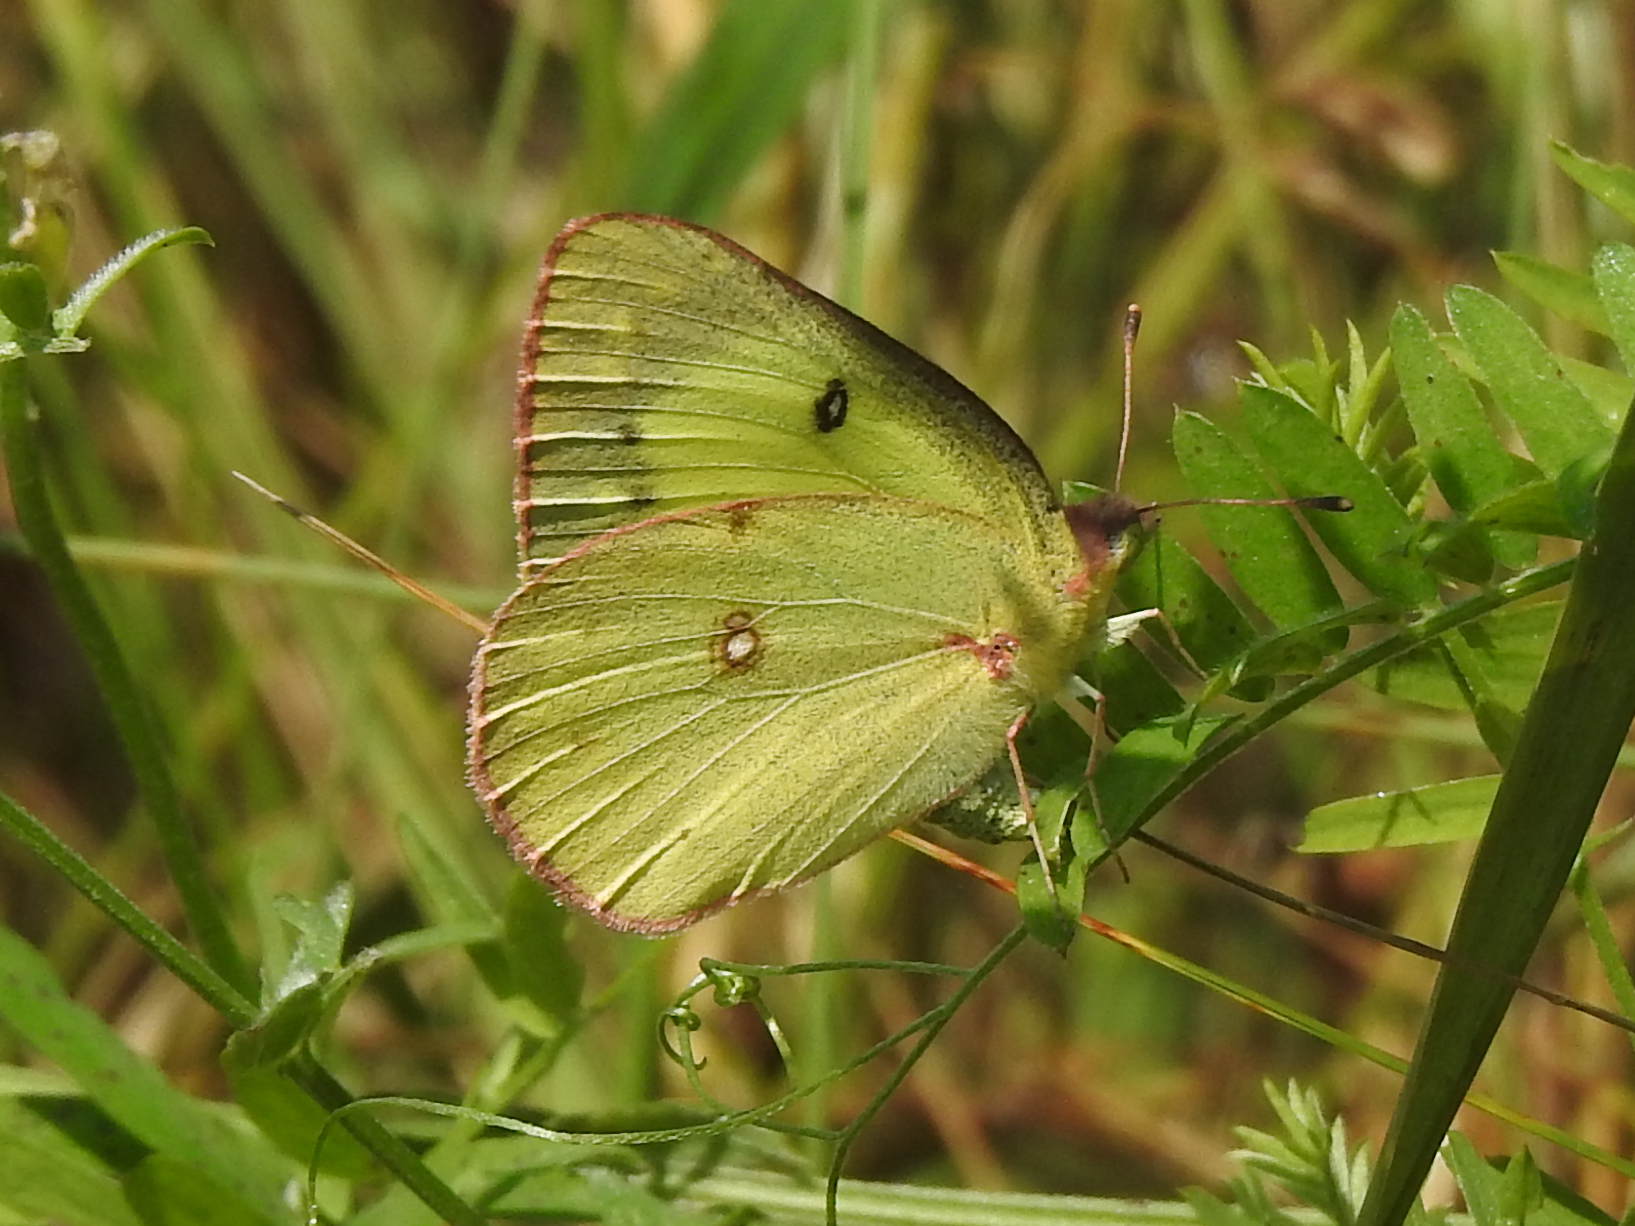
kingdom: Animalia
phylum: Arthropoda
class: Insecta
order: Lepidoptera
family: Pieridae
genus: Colias
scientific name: Colias philodice
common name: Clouded sulphur
